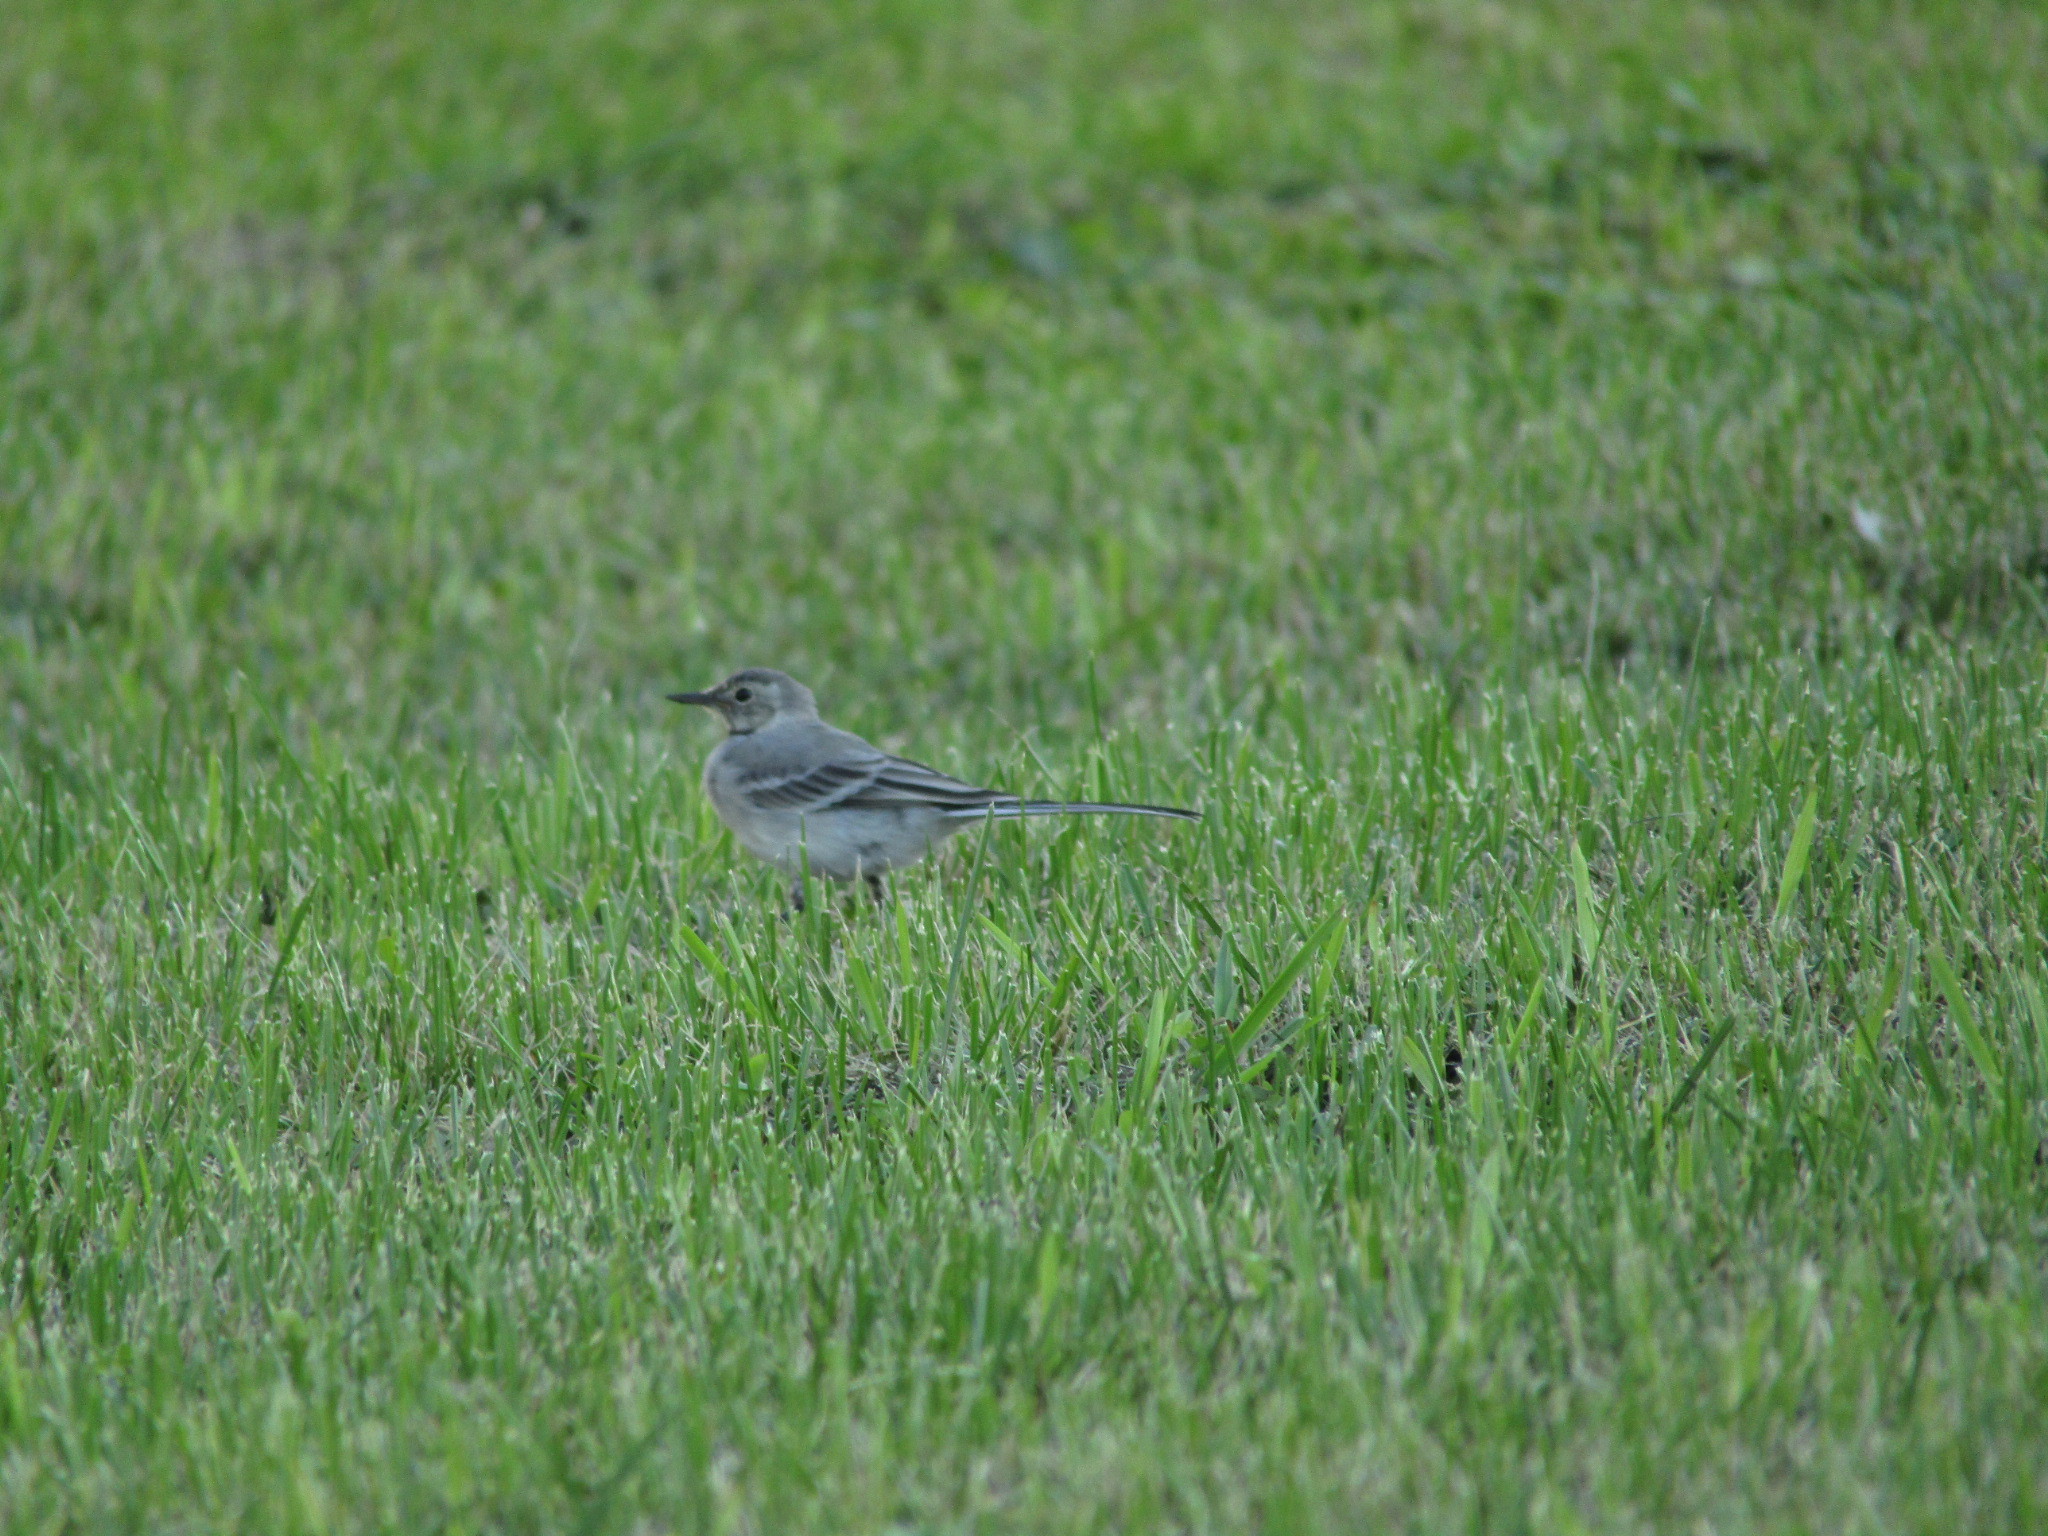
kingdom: Animalia
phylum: Chordata
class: Aves
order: Passeriformes
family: Motacillidae
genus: Motacilla
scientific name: Motacilla alba
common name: White wagtail
